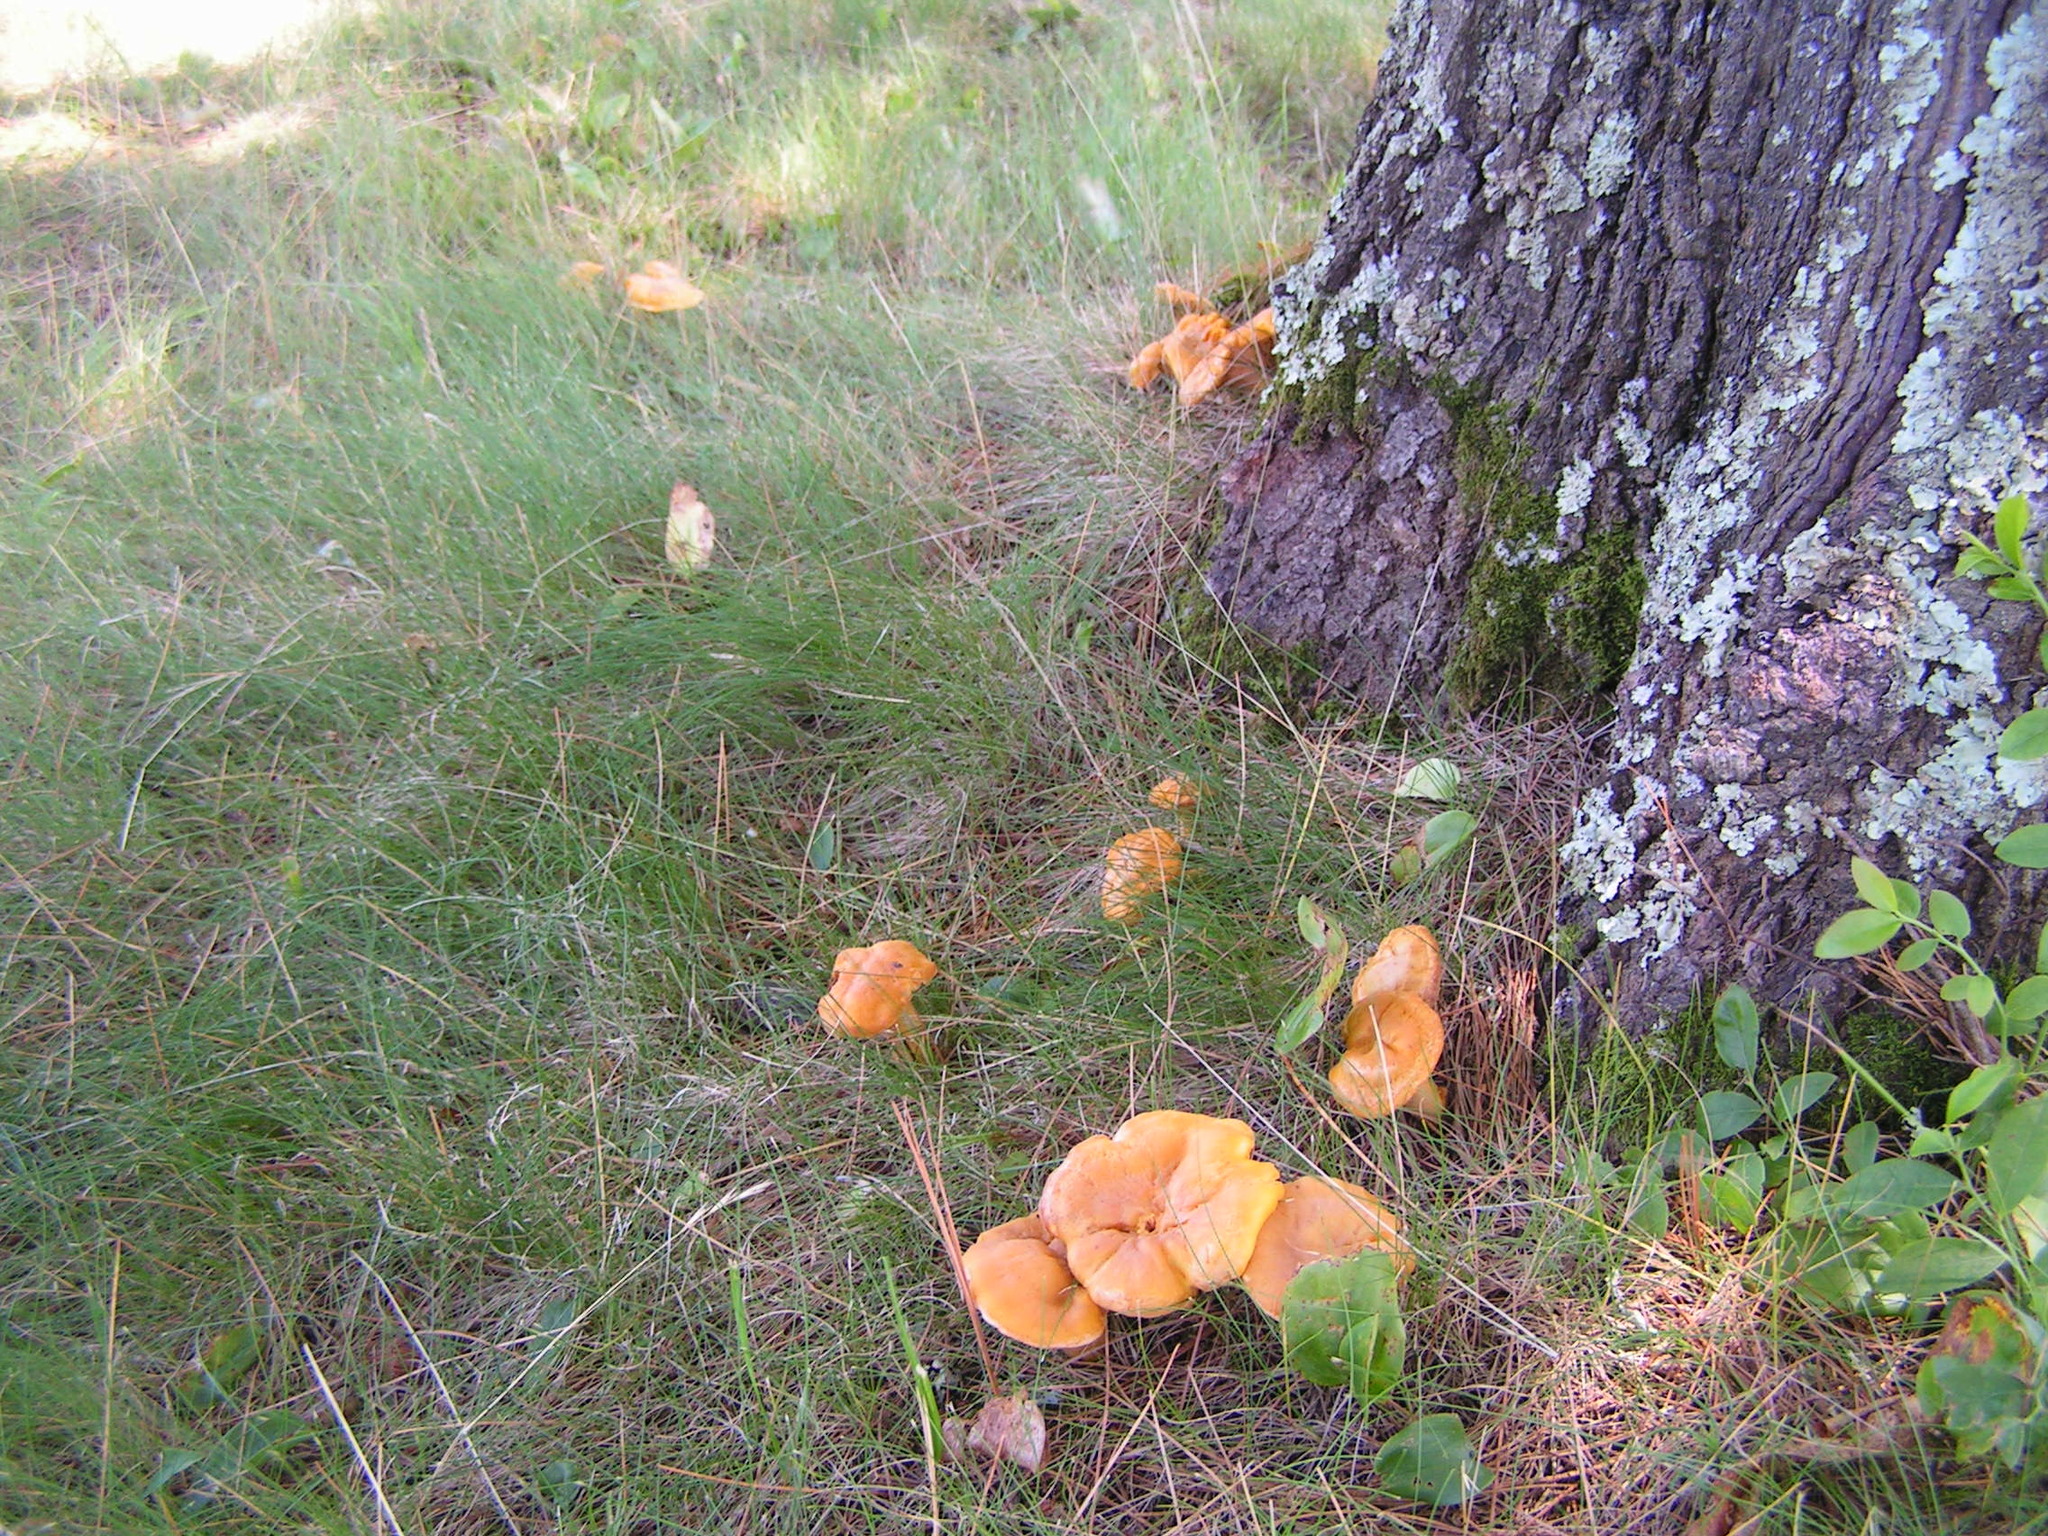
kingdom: Fungi
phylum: Basidiomycota
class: Agaricomycetes
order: Cantharellales
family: Hydnaceae
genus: Cantharellus
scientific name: Cantharellus enelensis
